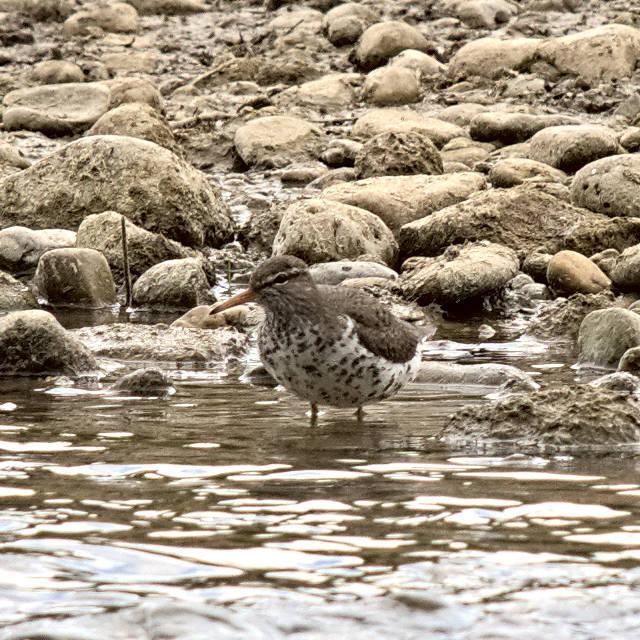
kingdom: Animalia
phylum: Chordata
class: Aves
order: Charadriiformes
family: Scolopacidae
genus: Actitis
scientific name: Actitis macularius
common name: Spotted sandpiper
